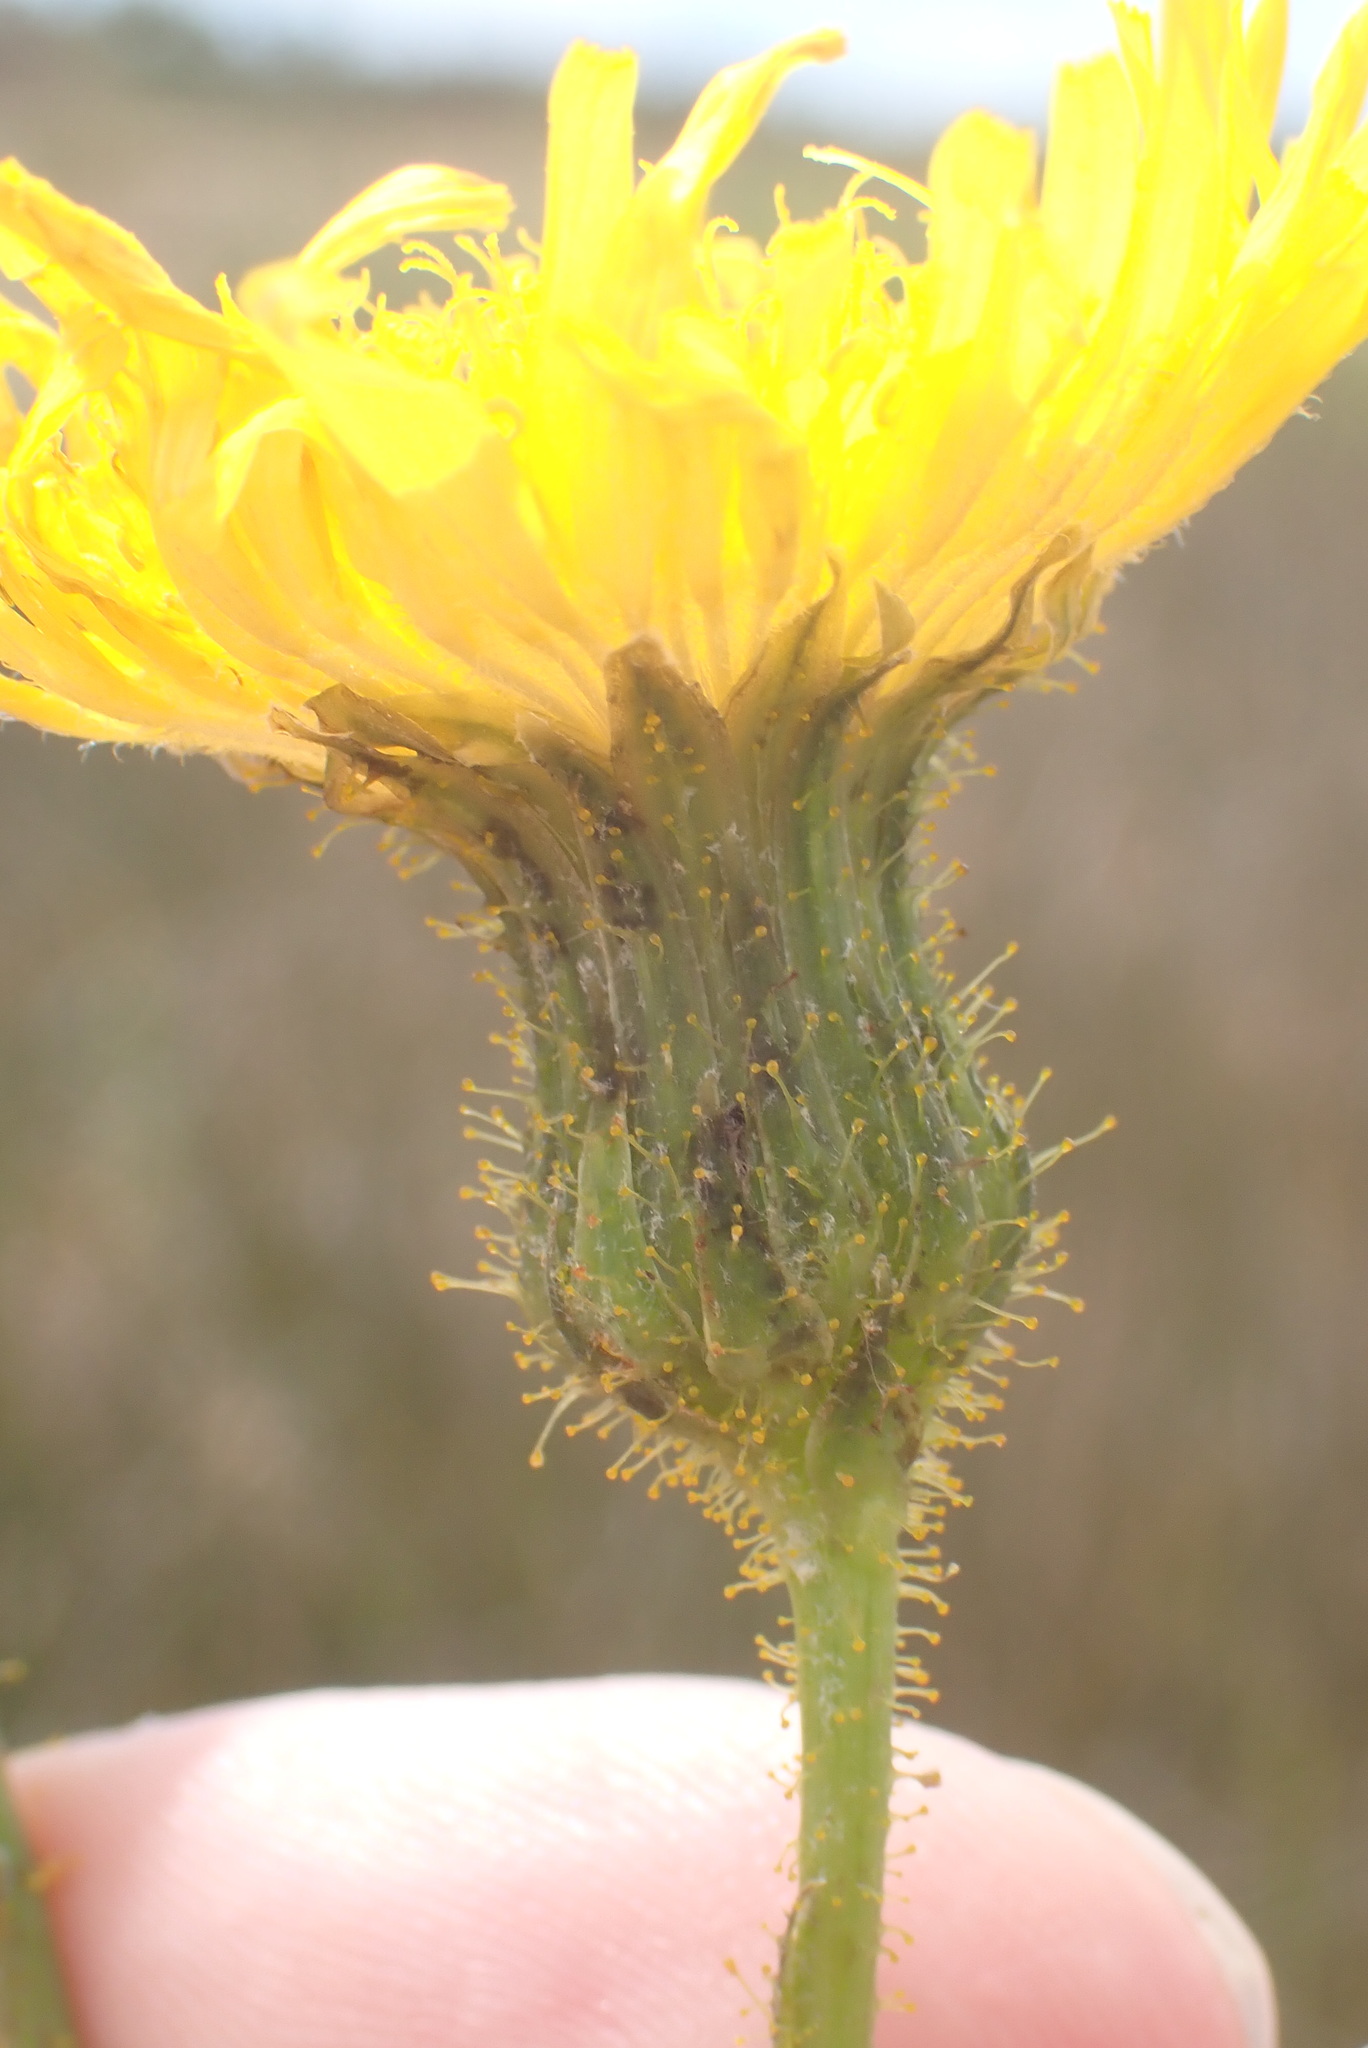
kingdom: Plantae
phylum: Tracheophyta
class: Magnoliopsida
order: Asterales
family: Asteraceae
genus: Sonchus
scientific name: Sonchus arvensis
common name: Perennial sow-thistle
